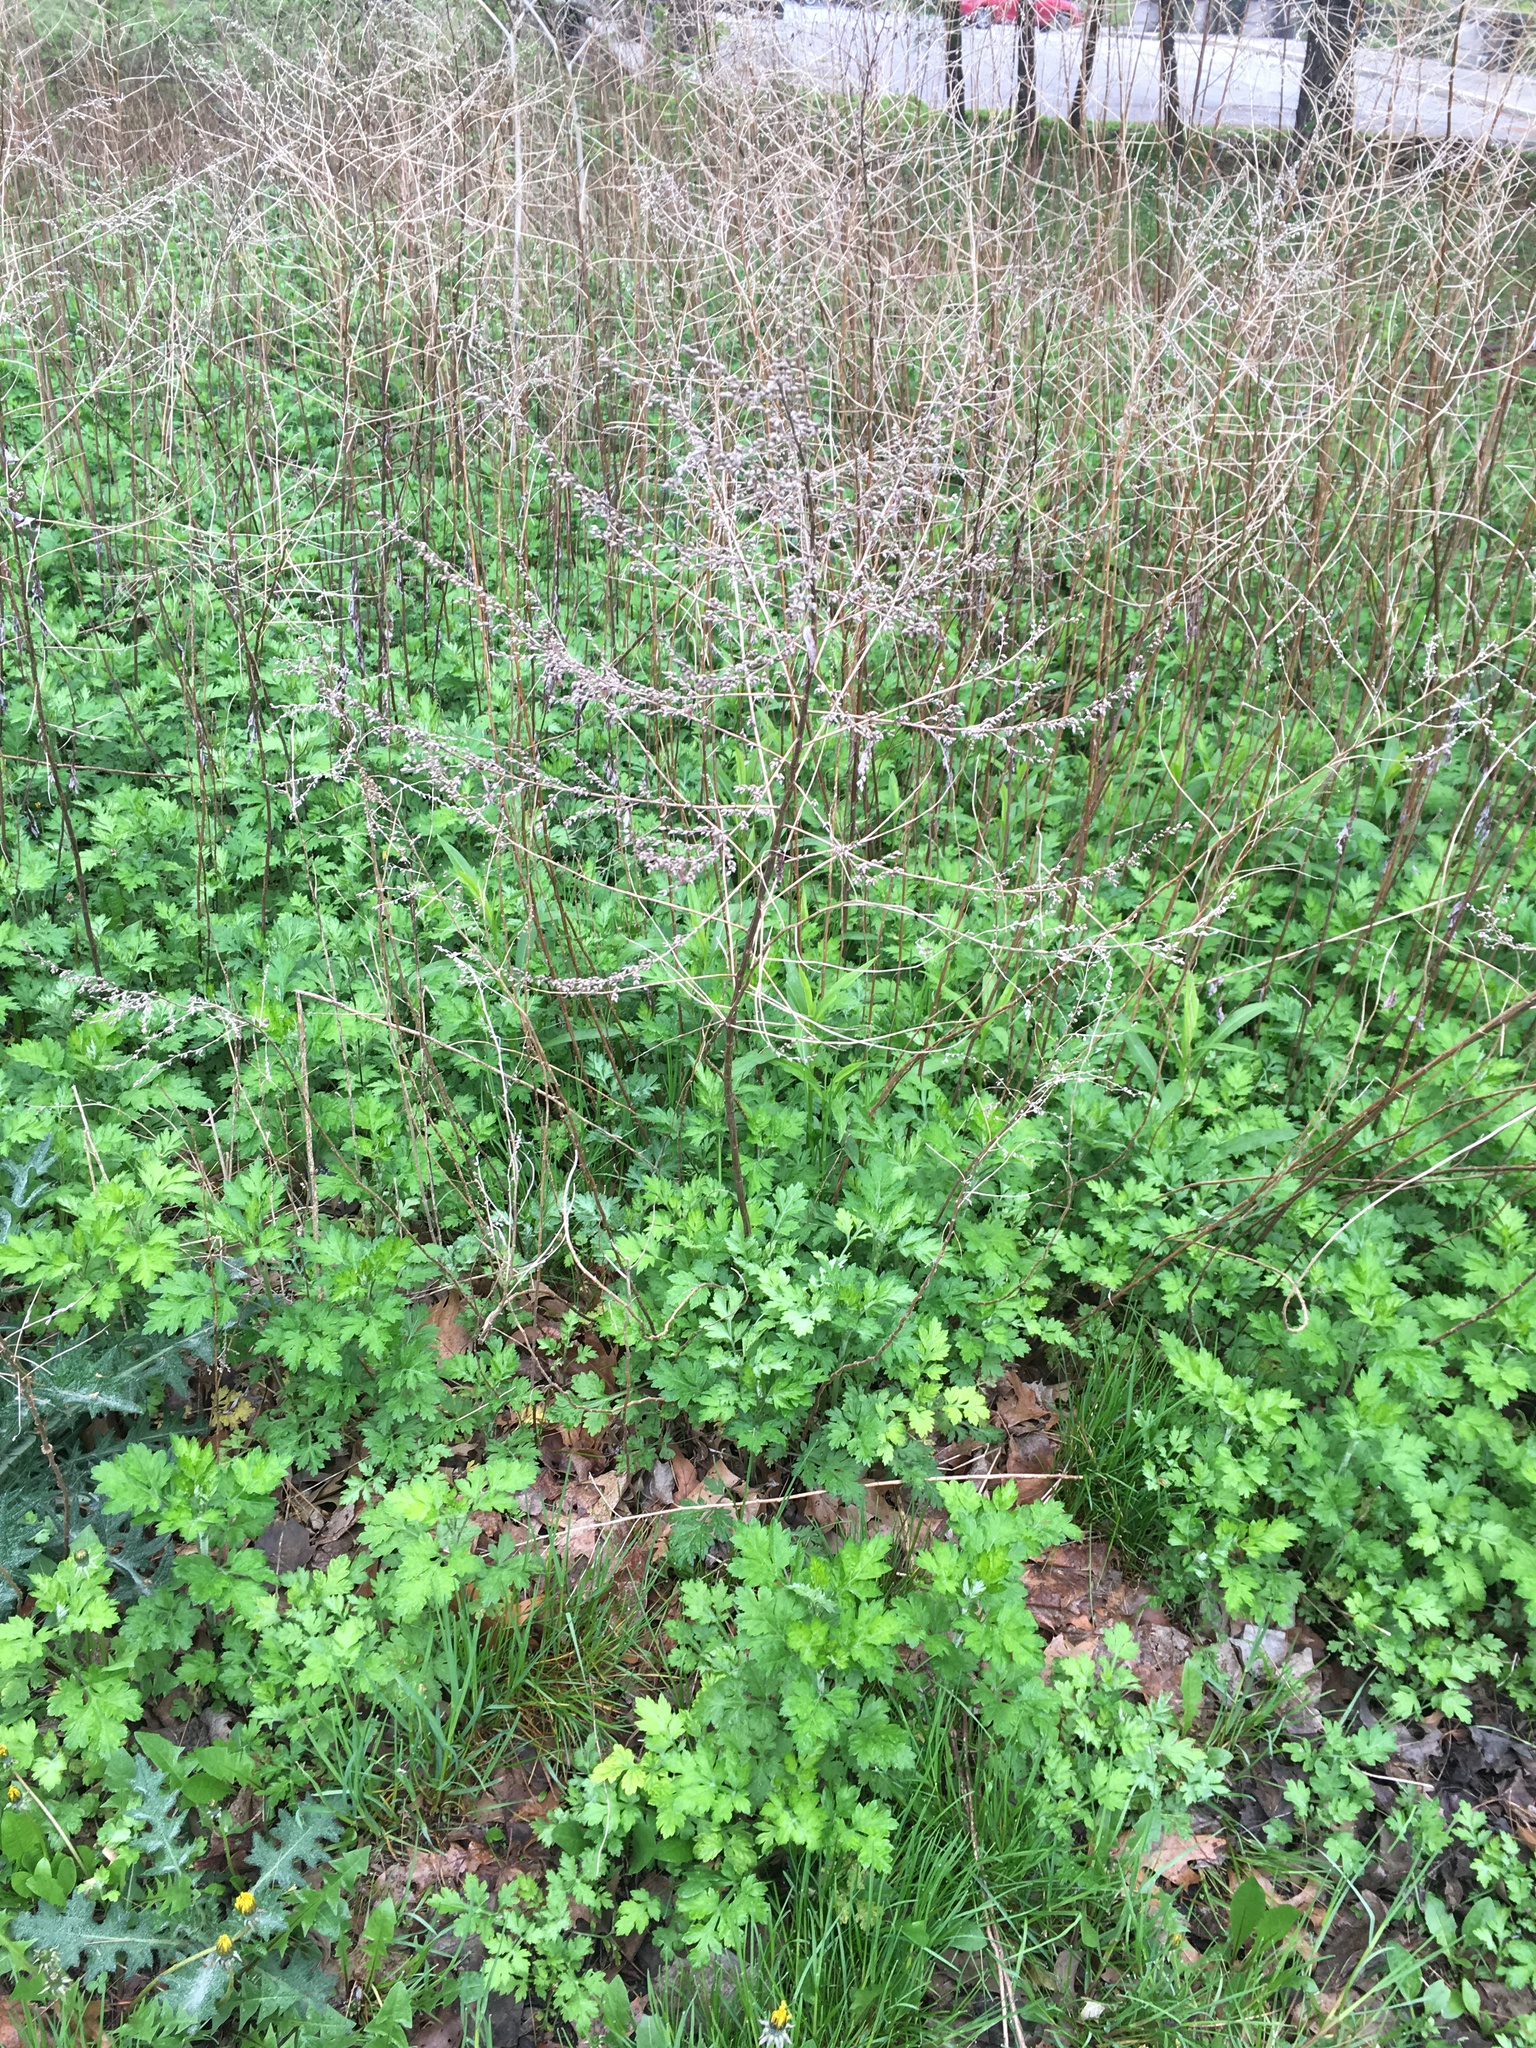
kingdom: Plantae
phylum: Tracheophyta
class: Magnoliopsida
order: Asterales
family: Asteraceae
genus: Artemisia
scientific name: Artemisia vulgaris
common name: Mugwort
